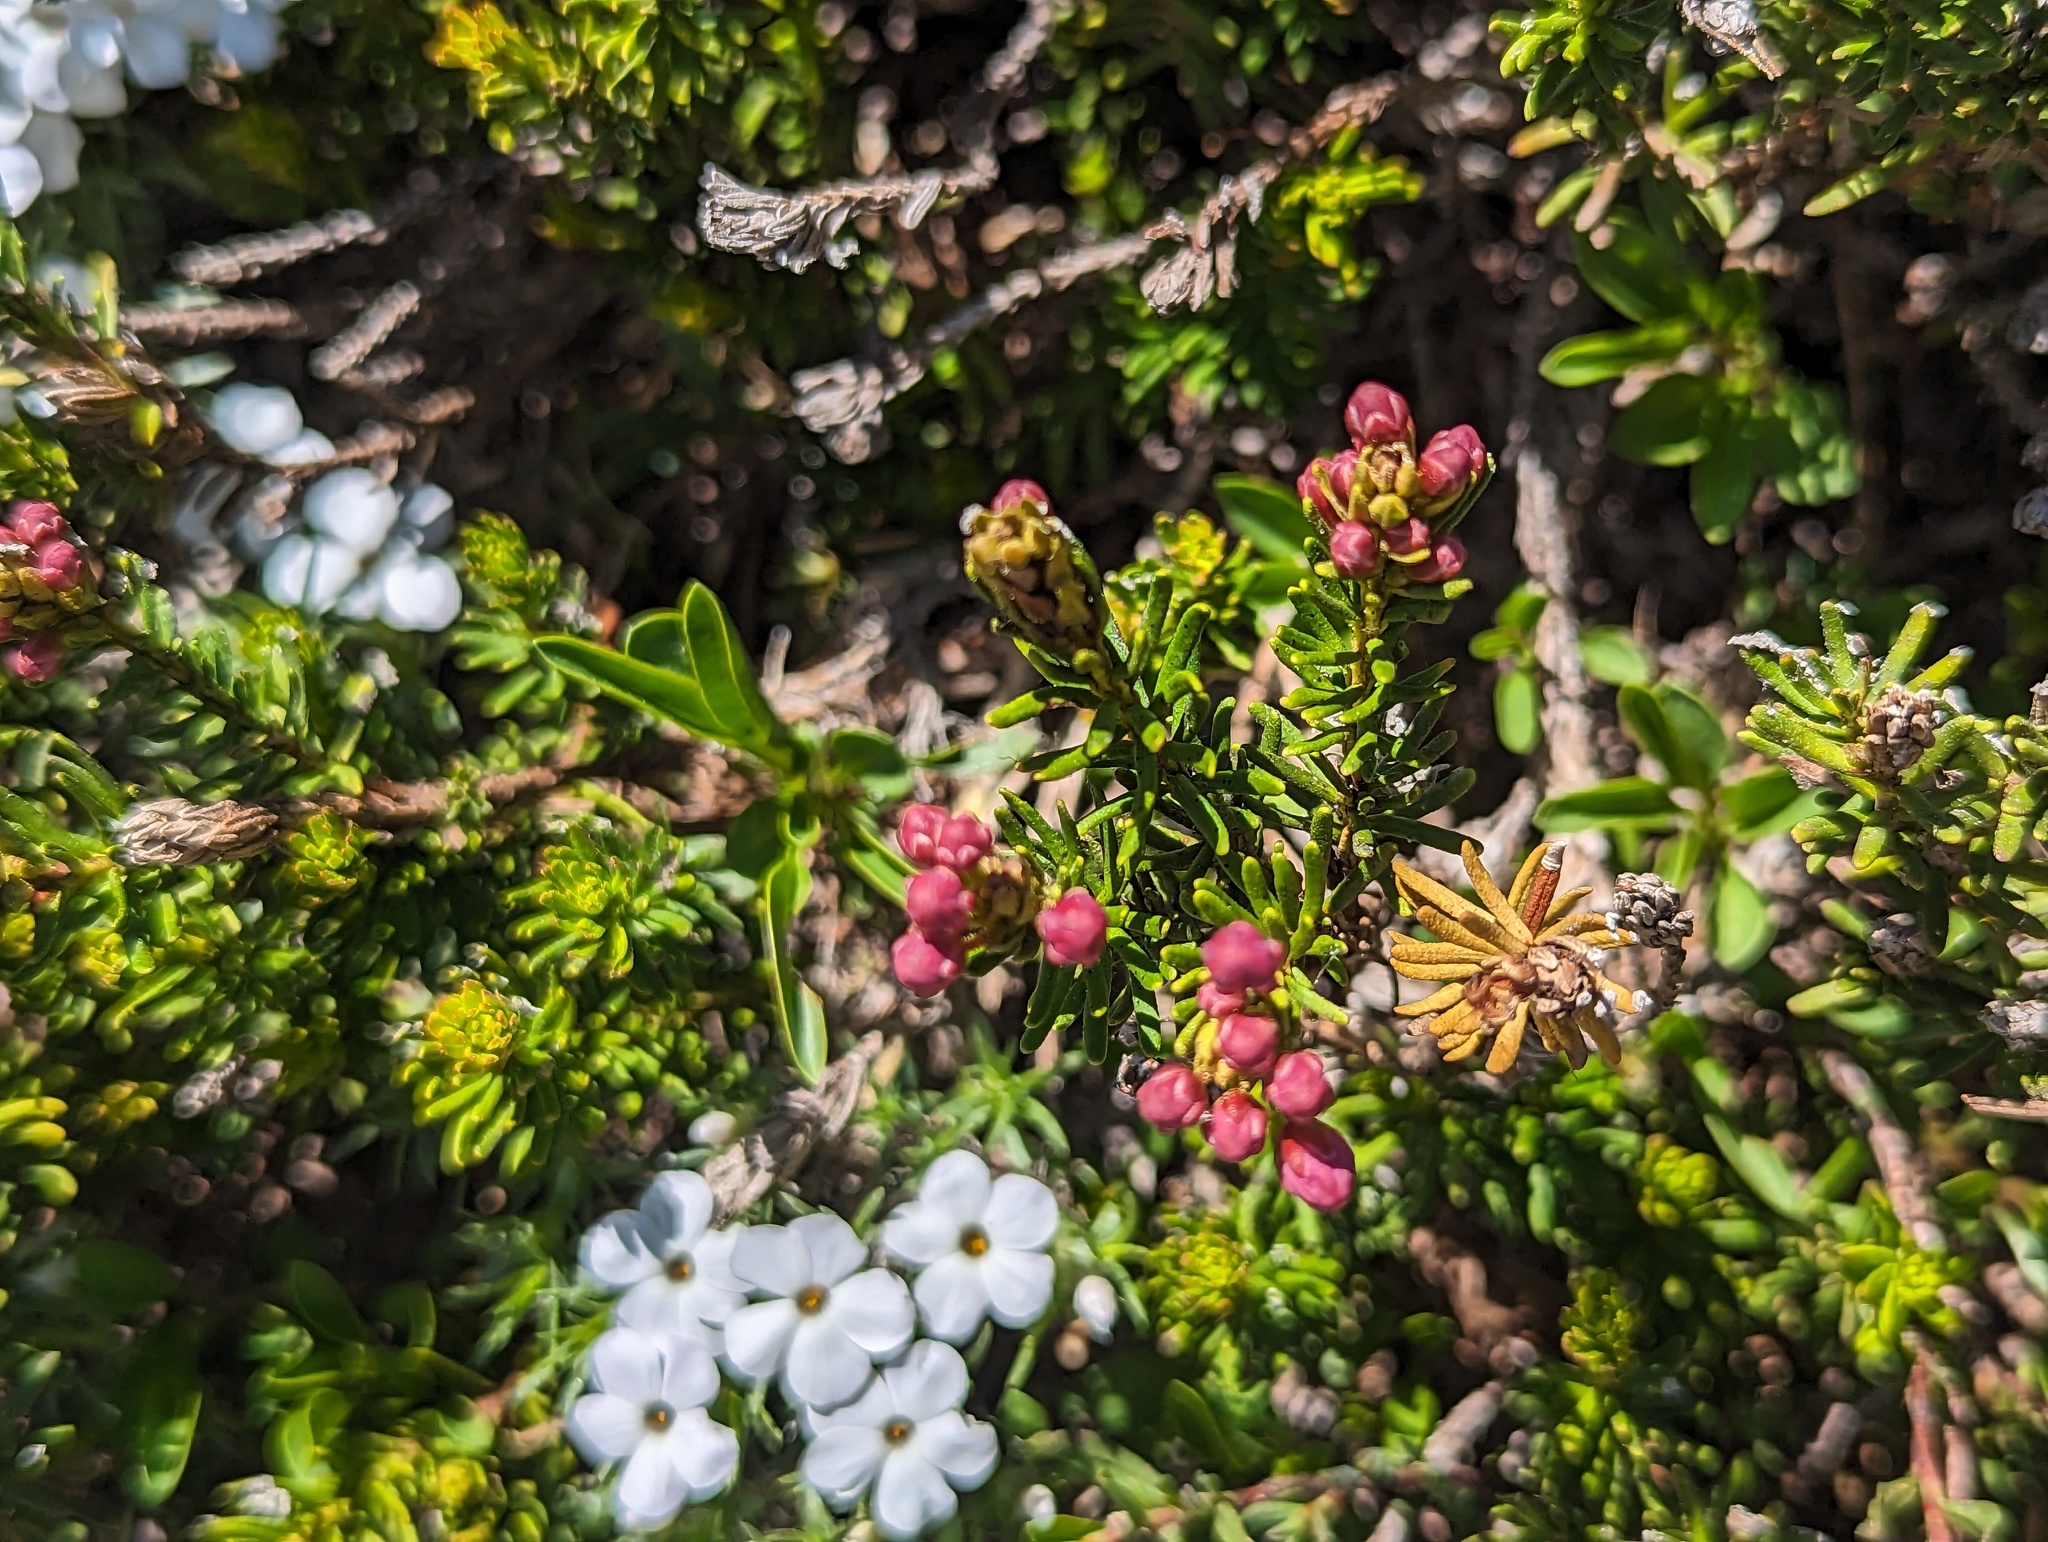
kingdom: Plantae
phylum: Tracheophyta
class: Magnoliopsida
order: Ericales
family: Ericaceae
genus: Phyllodoce
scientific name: Phyllodoce breweri
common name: Brewer's mountain-heather
